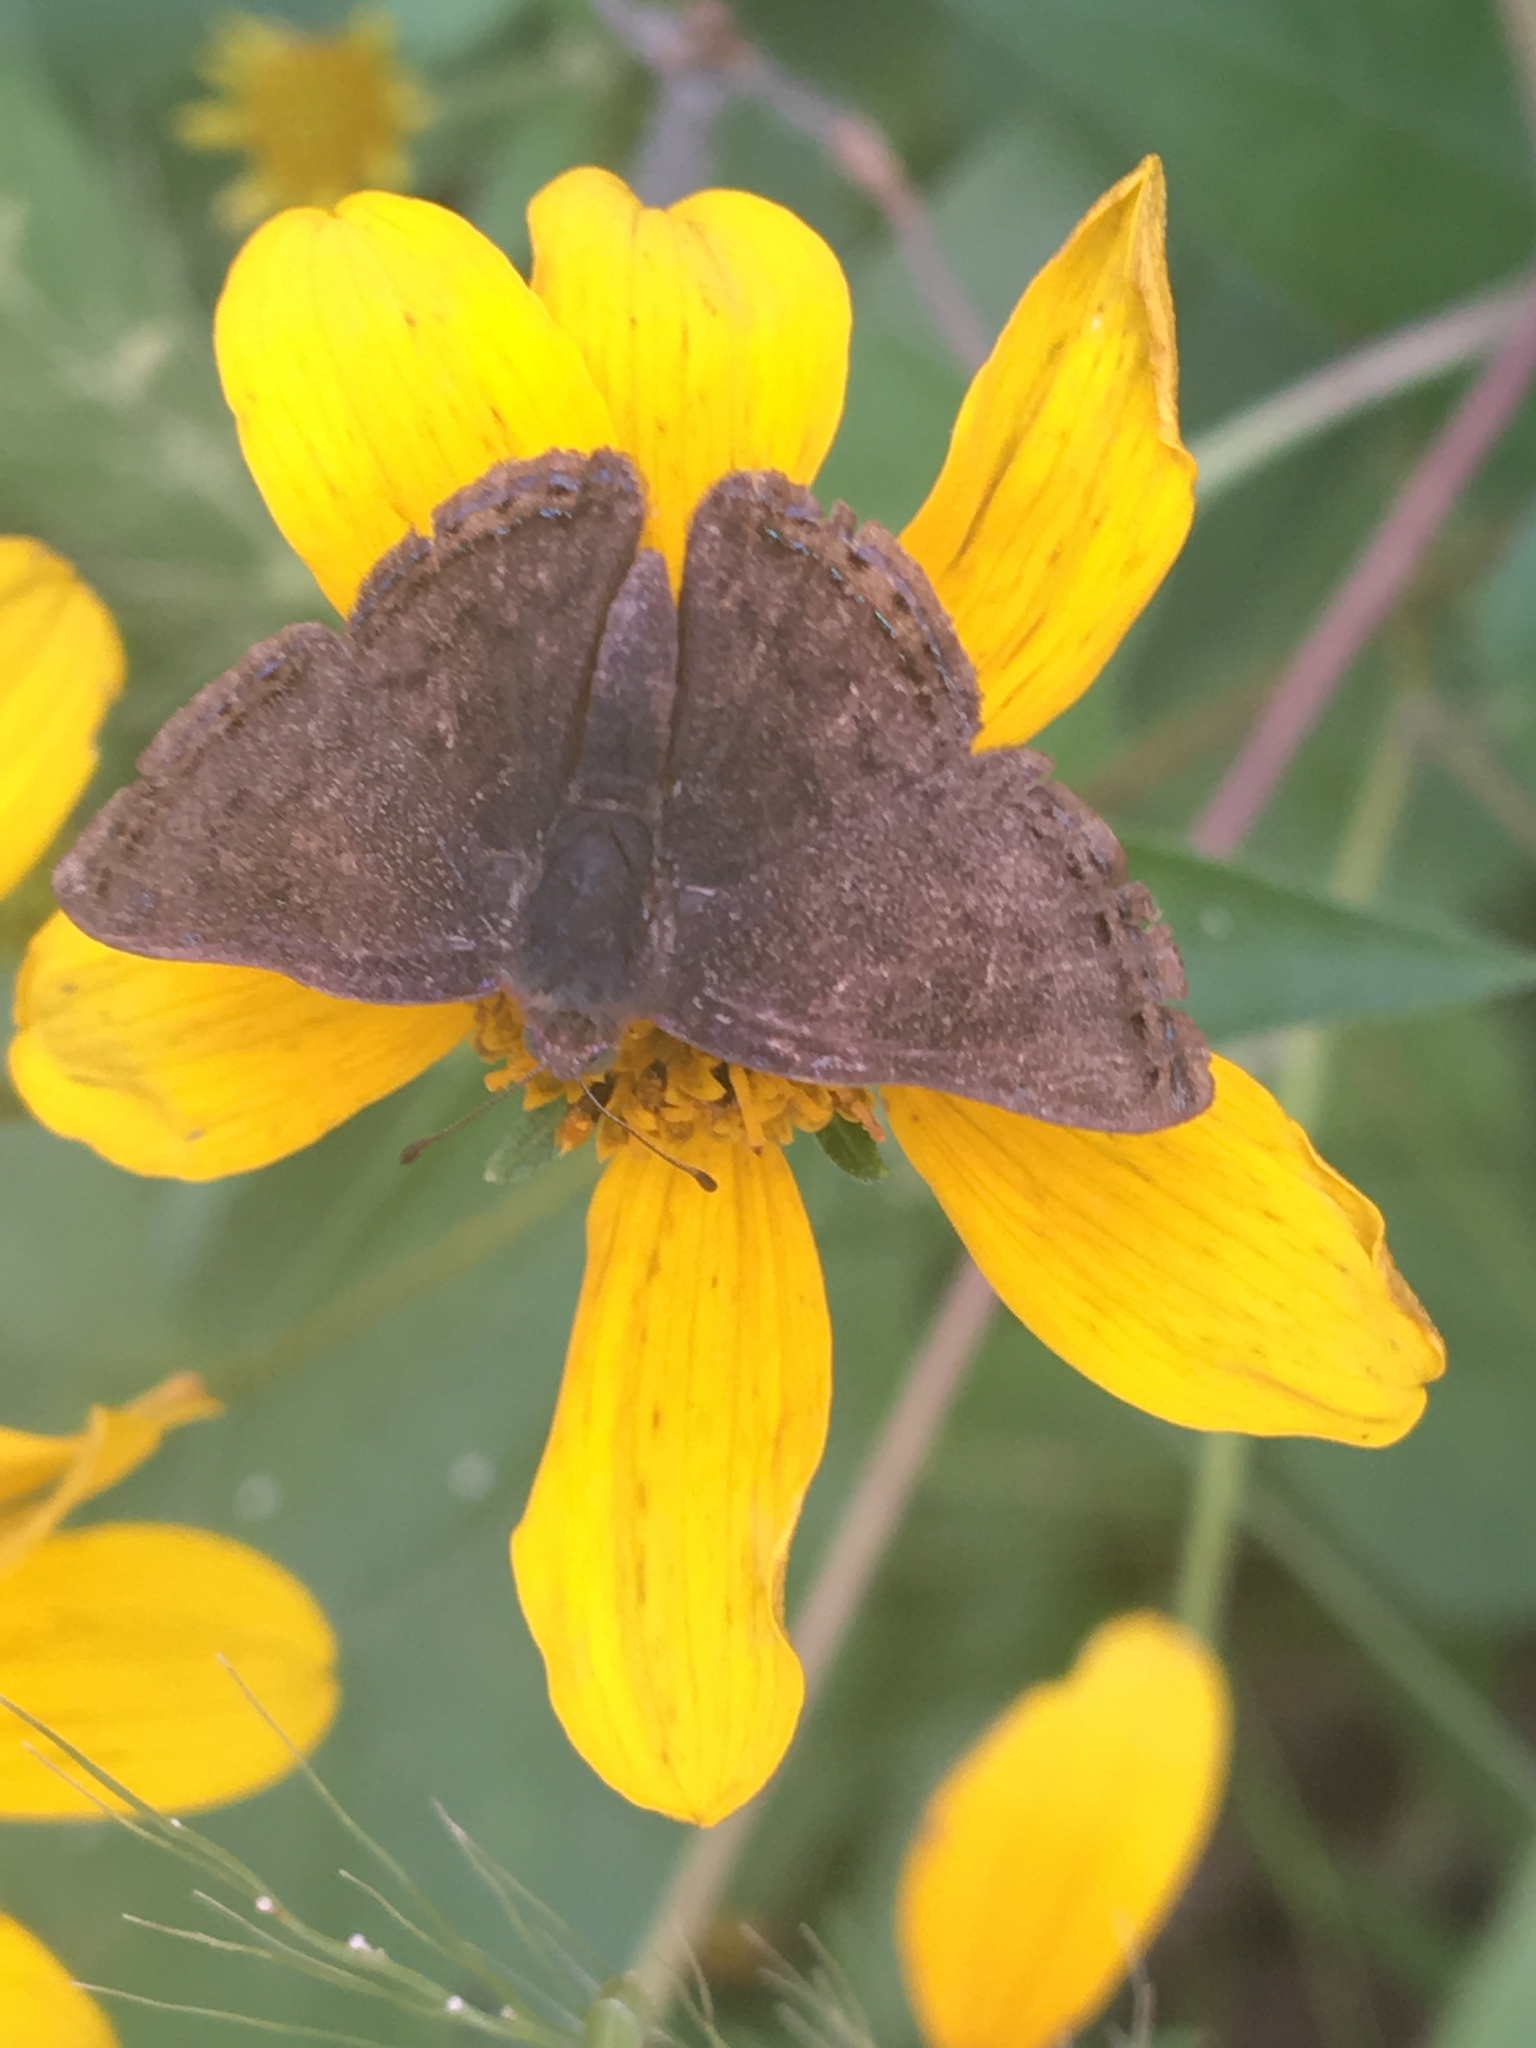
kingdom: Animalia
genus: Caria
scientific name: Caria ino
